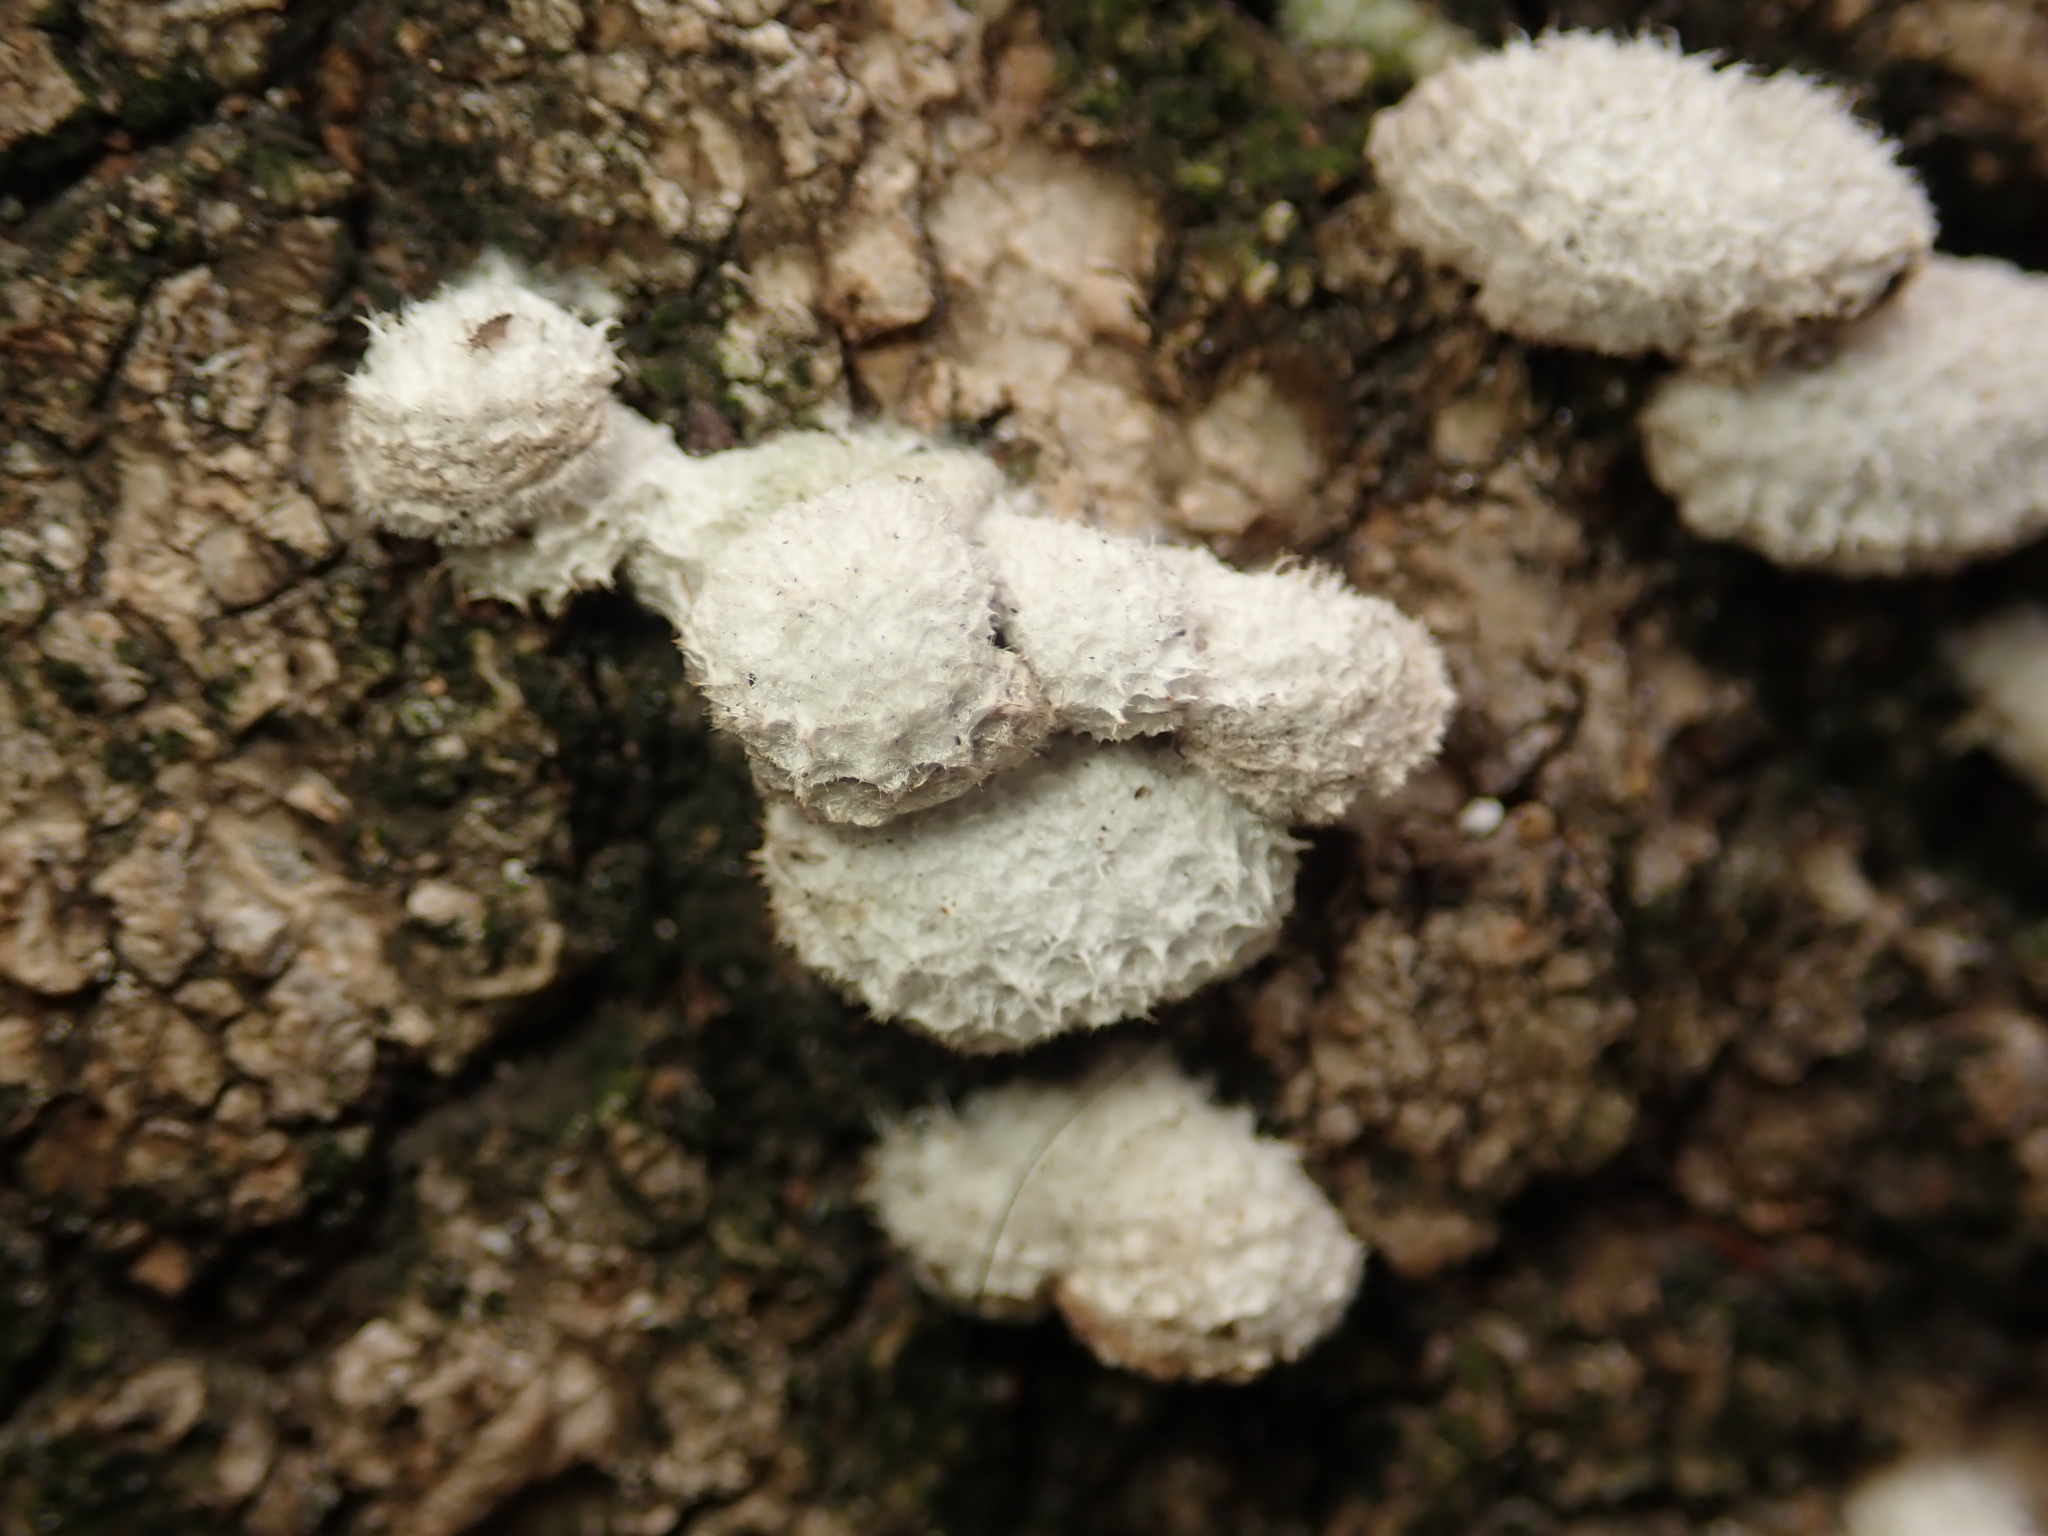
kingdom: Fungi
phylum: Basidiomycota
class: Agaricomycetes
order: Agaricales
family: Schizophyllaceae
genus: Schizophyllum
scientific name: Schizophyllum commune
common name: Common porecrust
